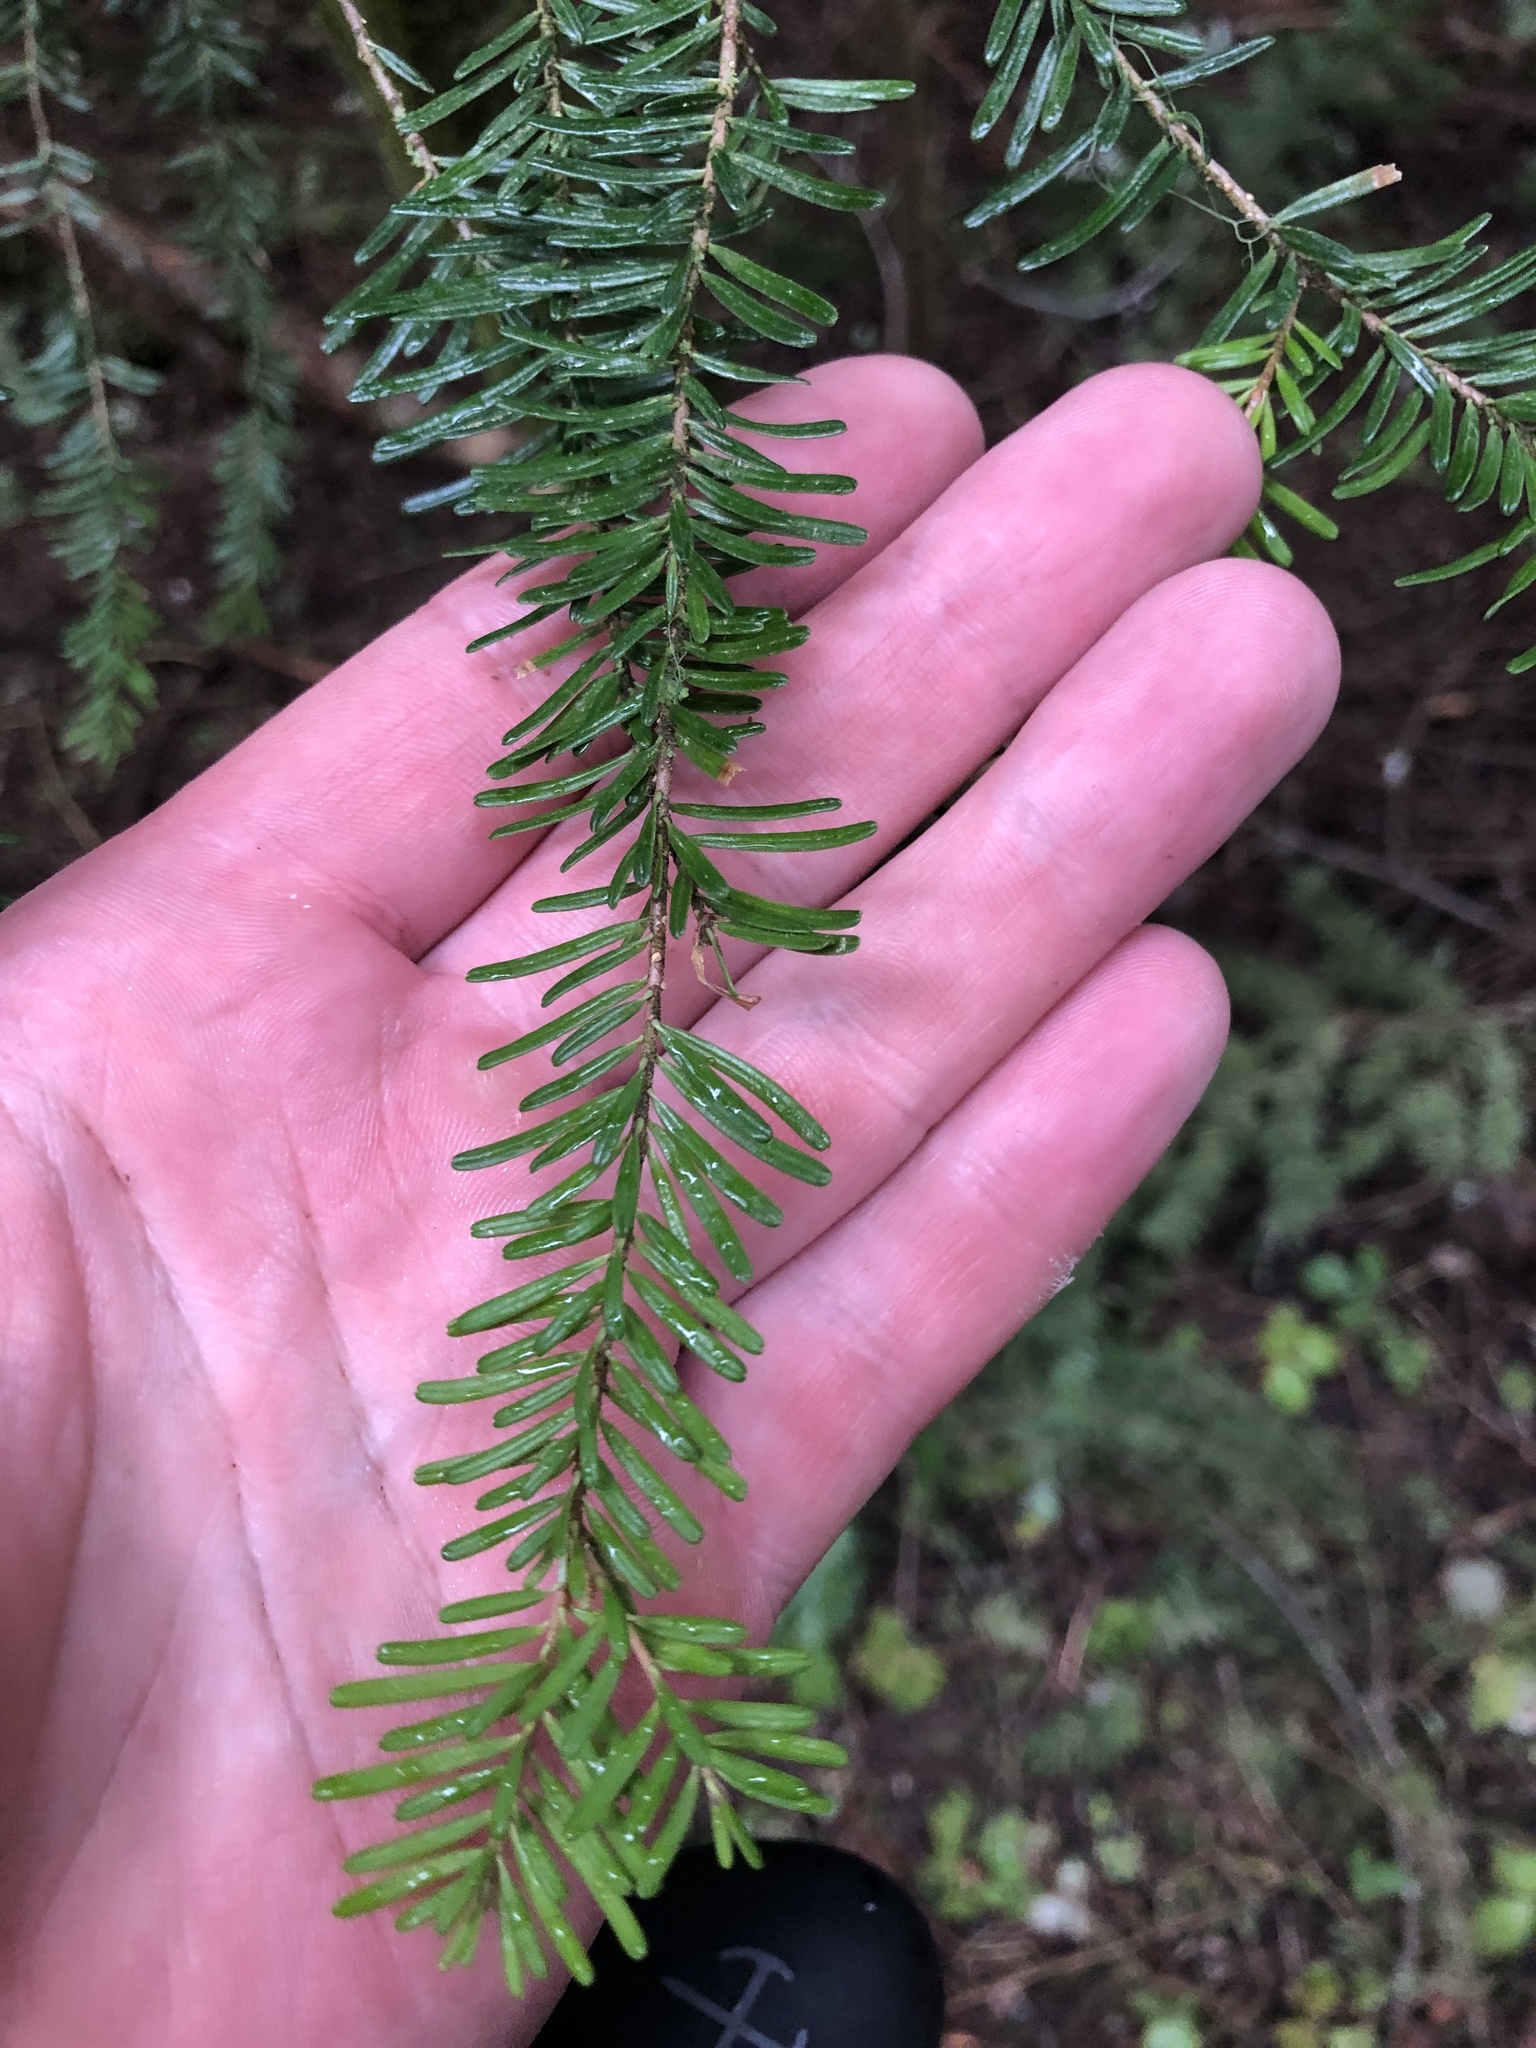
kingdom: Plantae
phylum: Tracheophyta
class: Pinopsida
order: Pinales
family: Pinaceae
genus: Abies
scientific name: Abies amabilis
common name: Pacific silver fir
